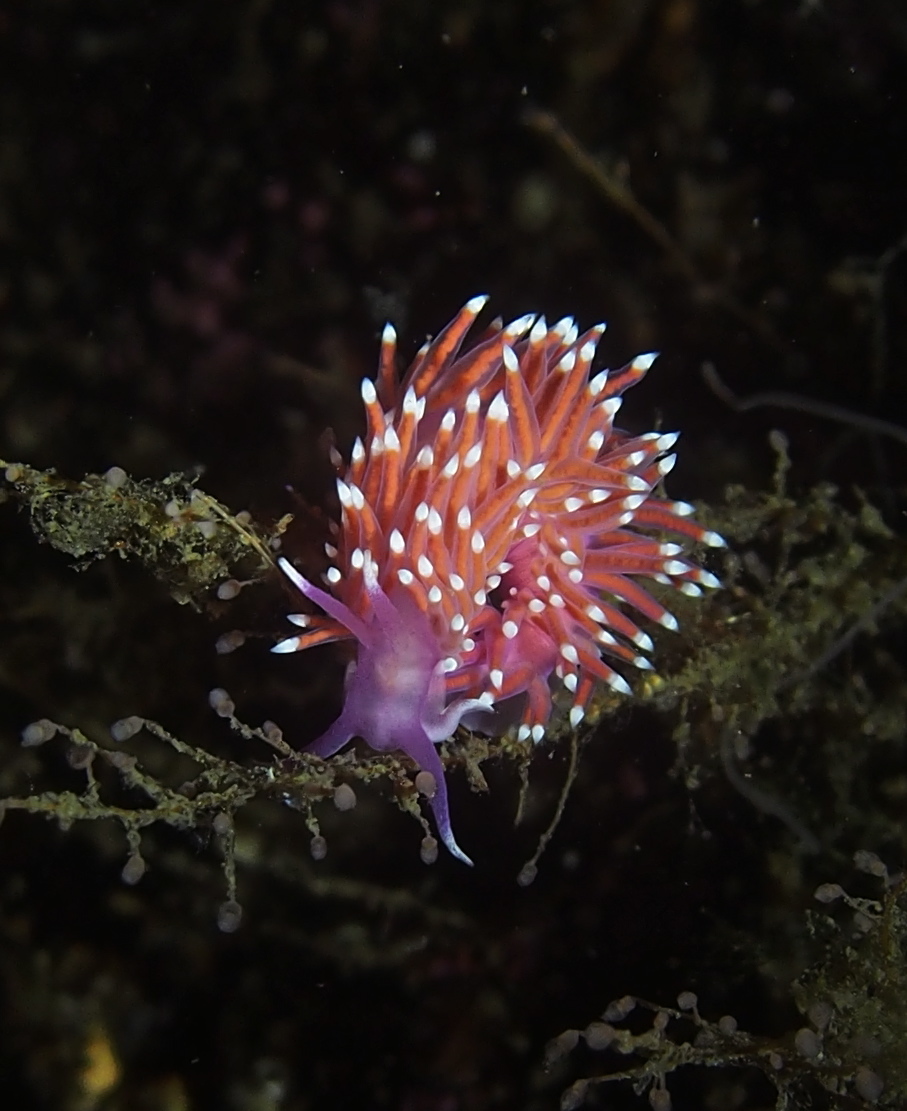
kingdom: Animalia
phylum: Mollusca
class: Gastropoda
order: Nudibranchia
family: Flabellinidae
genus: Edmundsella
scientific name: Edmundsella pedata
